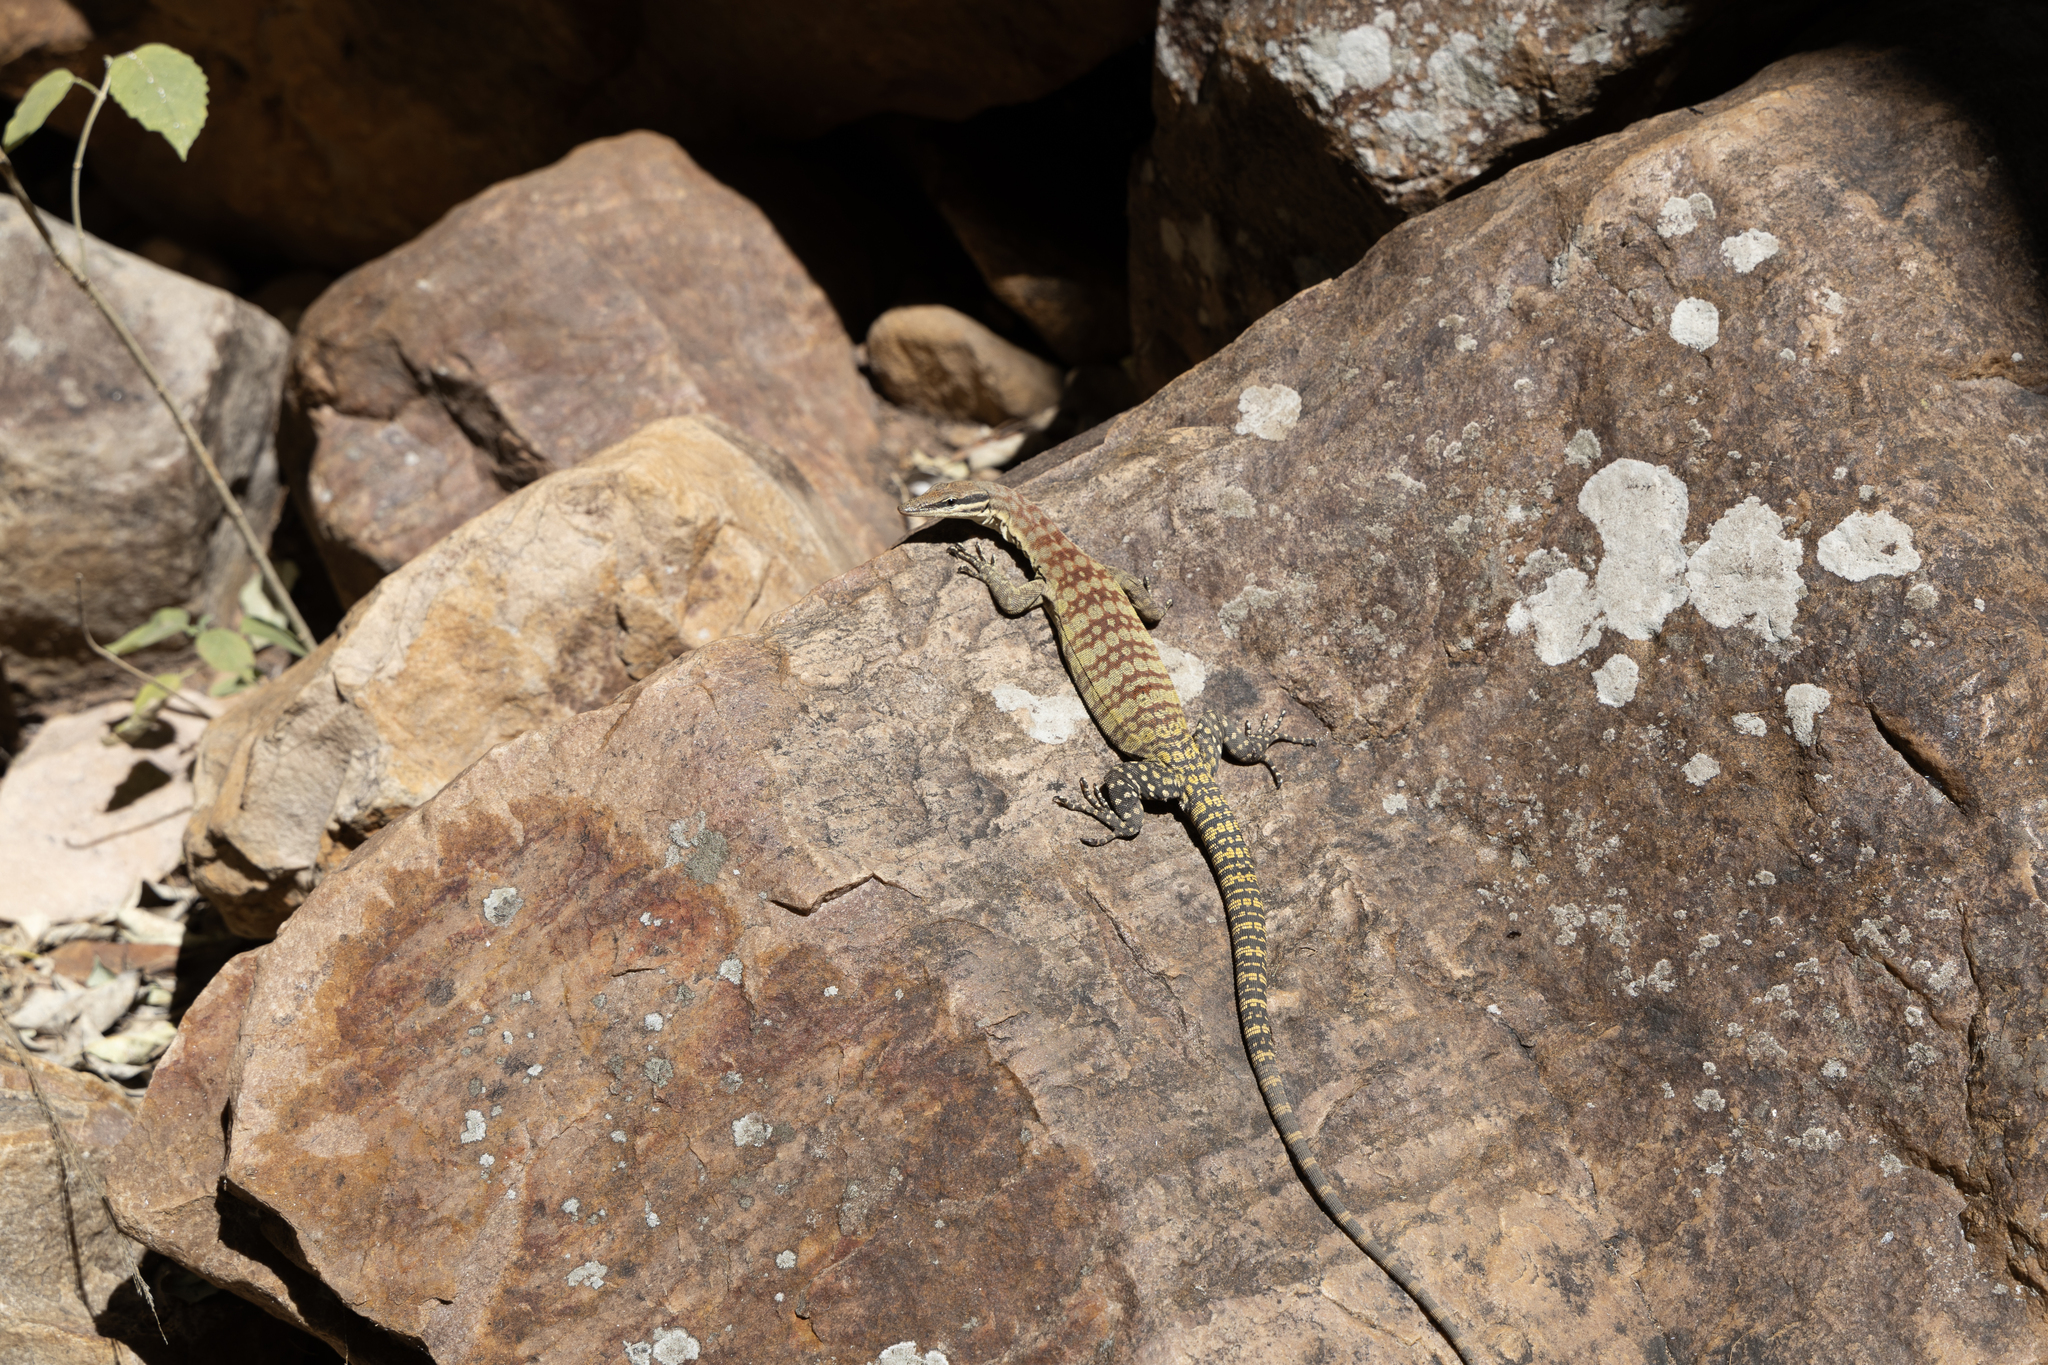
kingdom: Animalia
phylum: Chordata
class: Squamata
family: Varanidae
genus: Varanus
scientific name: Varanus glauerti
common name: Kimberley rock monitor
